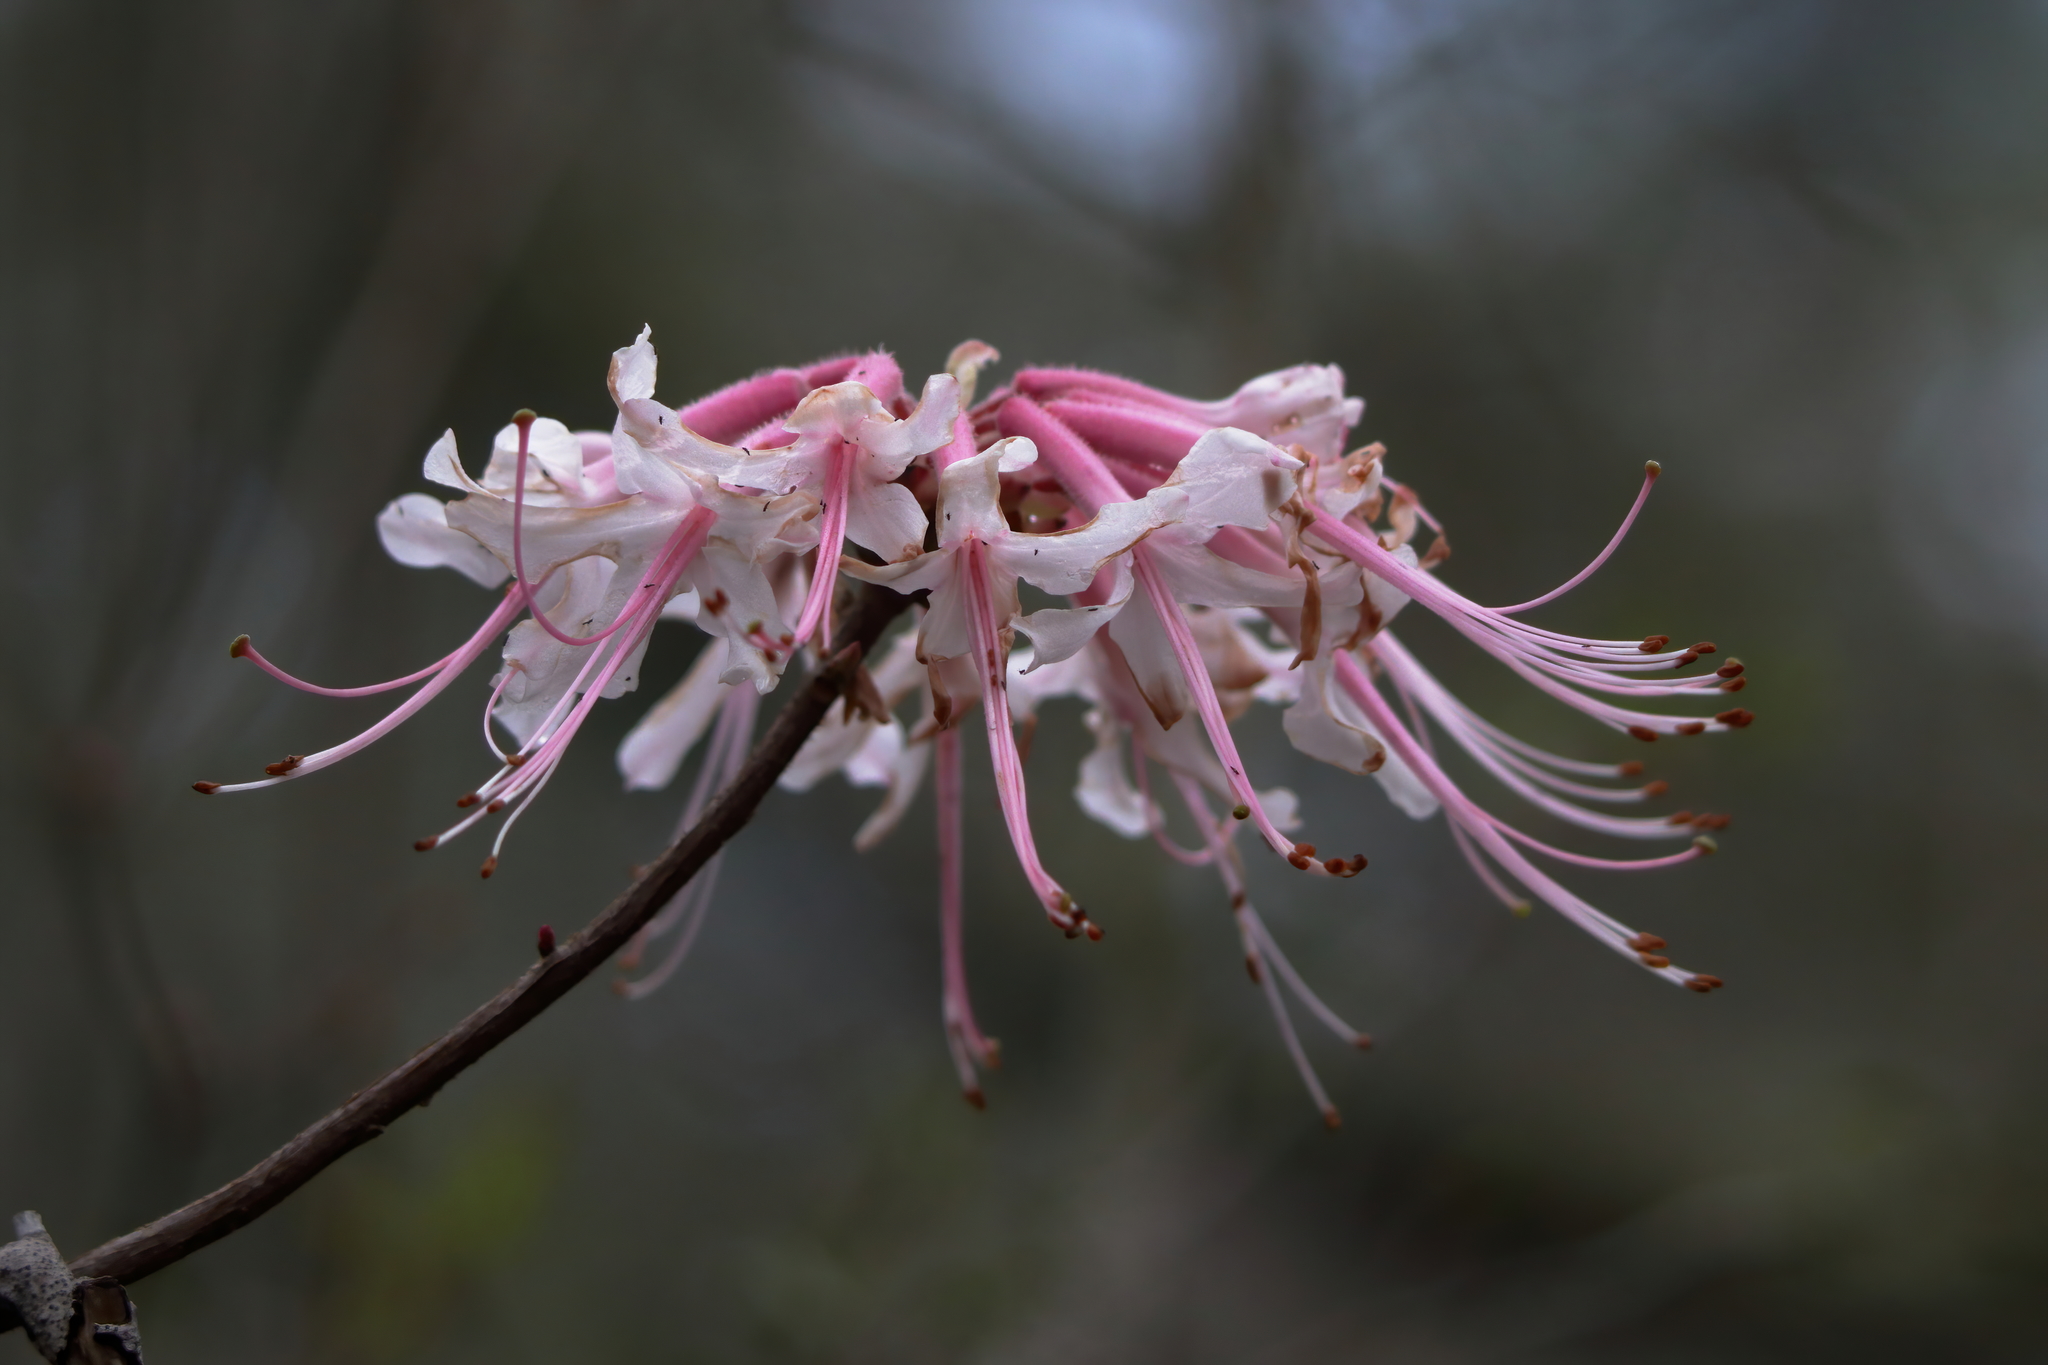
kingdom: Plantae
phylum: Tracheophyta
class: Magnoliopsida
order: Ericales
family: Ericaceae
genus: Rhododendron
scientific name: Rhododendron canescens
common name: Mountain azalea
